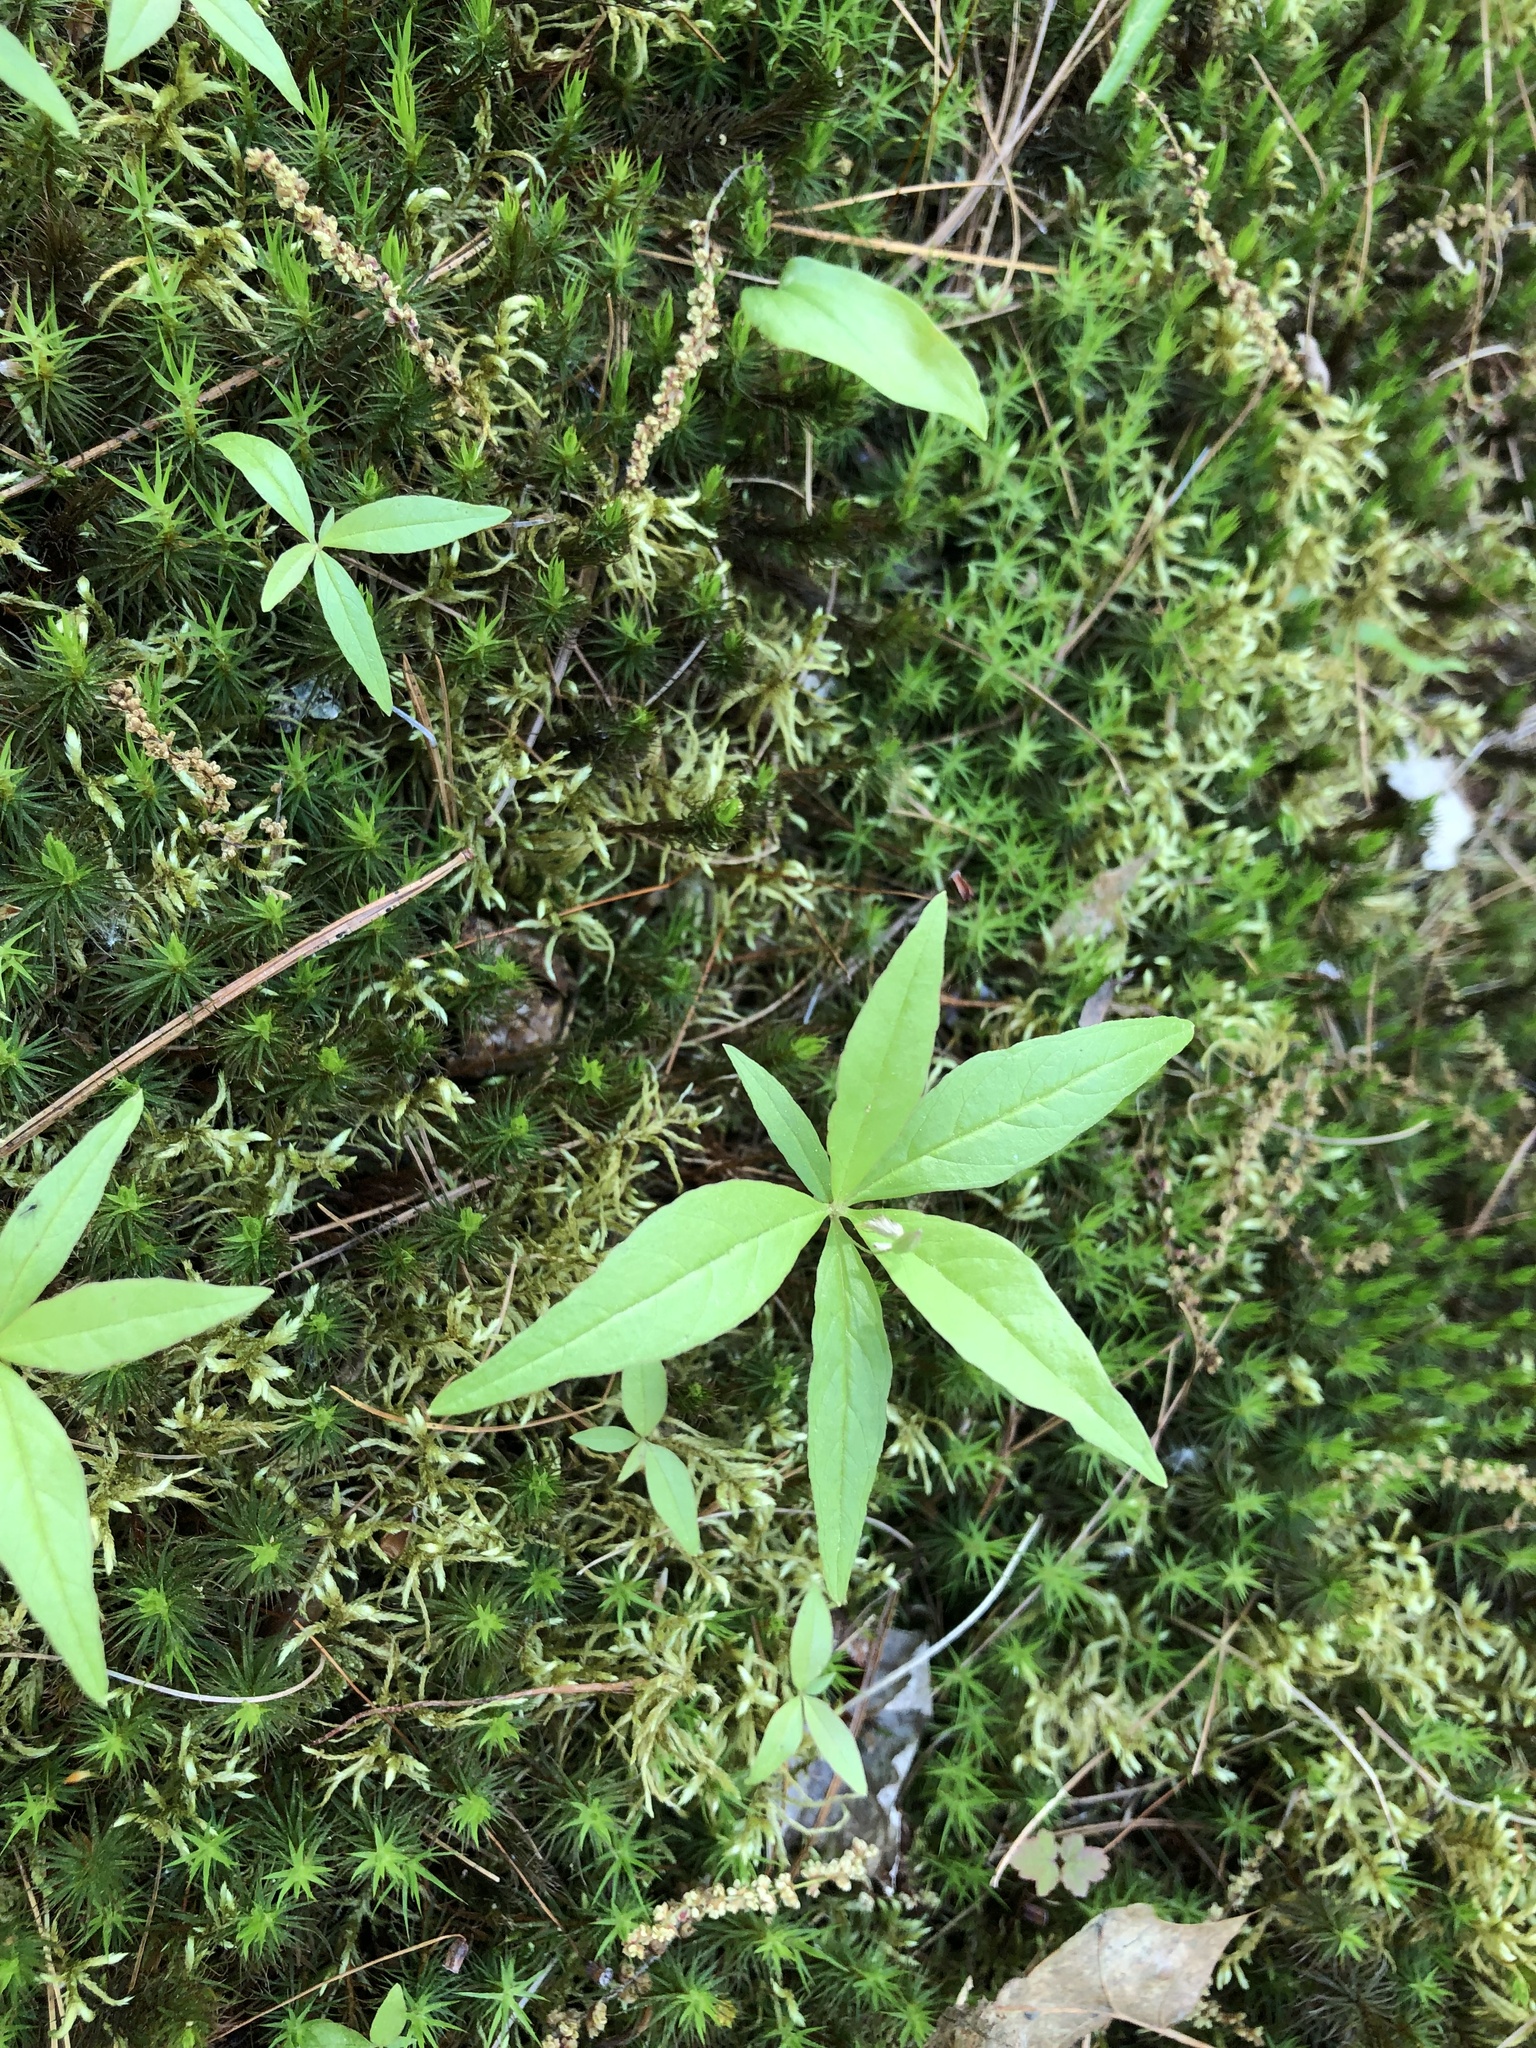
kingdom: Plantae
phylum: Tracheophyta
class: Magnoliopsida
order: Ericales
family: Primulaceae
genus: Lysimachia
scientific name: Lysimachia borealis
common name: American starflower
